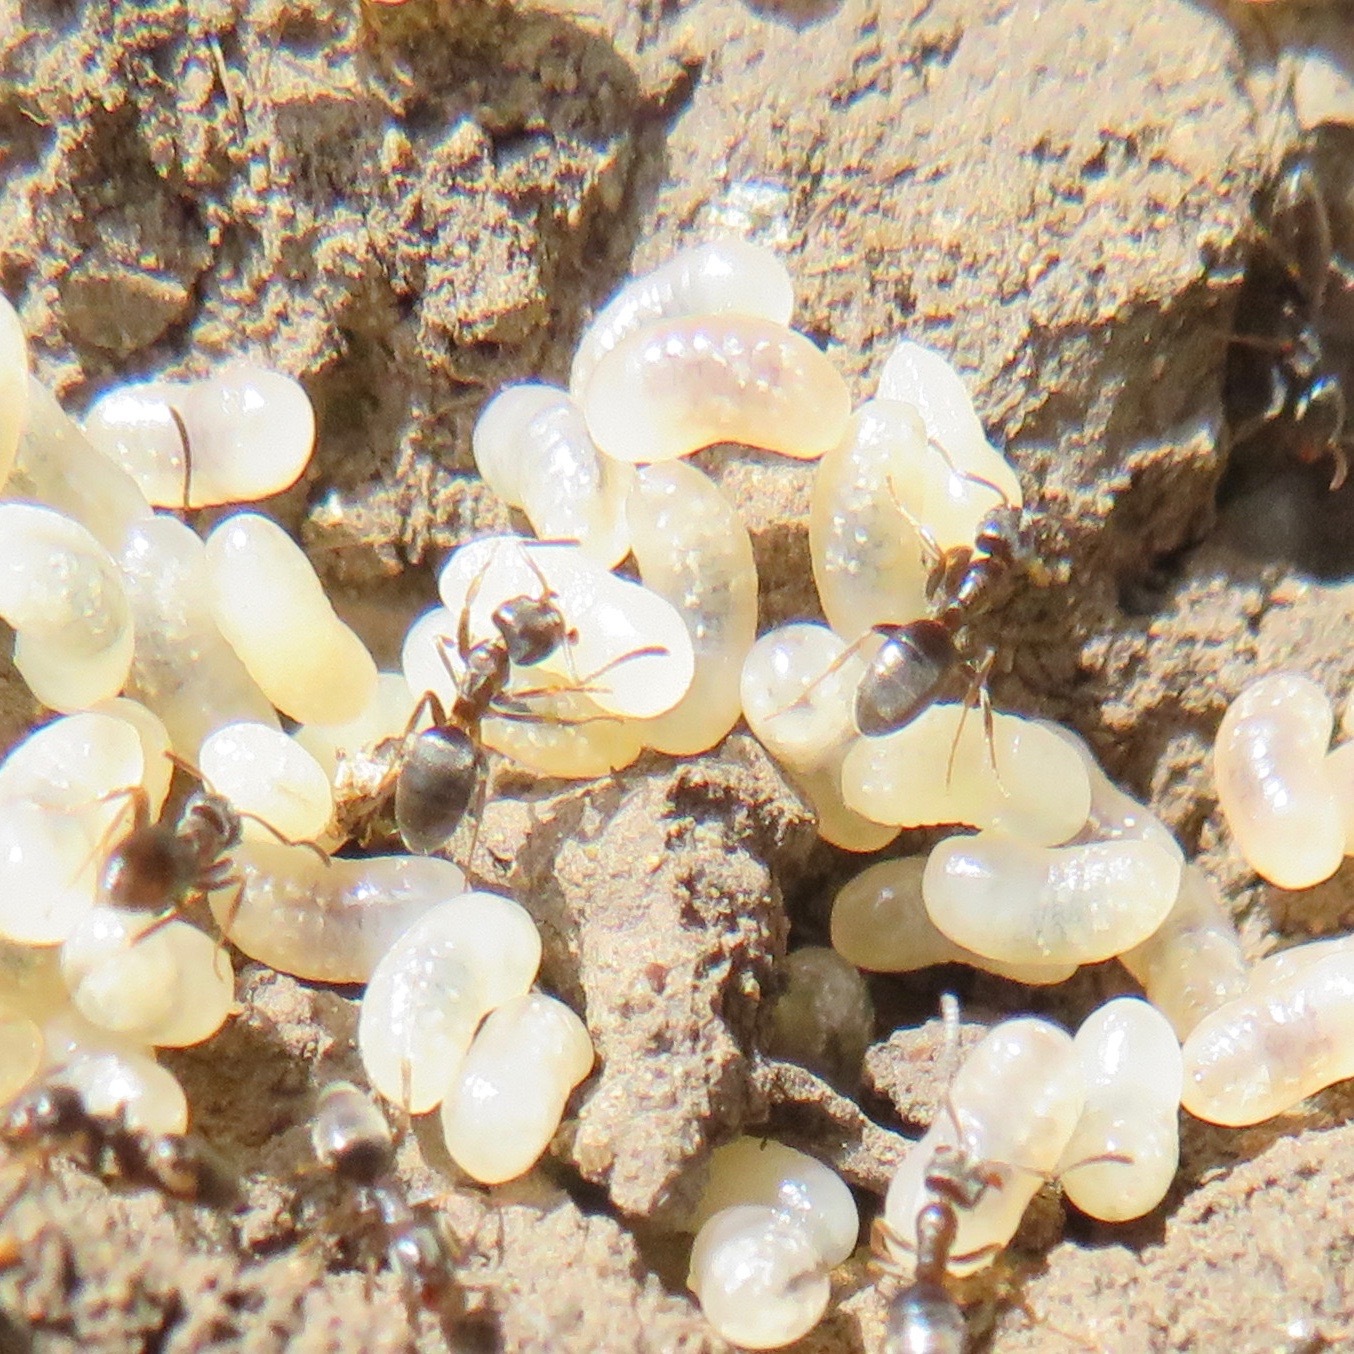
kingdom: Animalia
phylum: Arthropoda
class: Insecta
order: Hymenoptera
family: Formicidae
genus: Linepithema
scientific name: Linepithema humile
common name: Argentine ant
